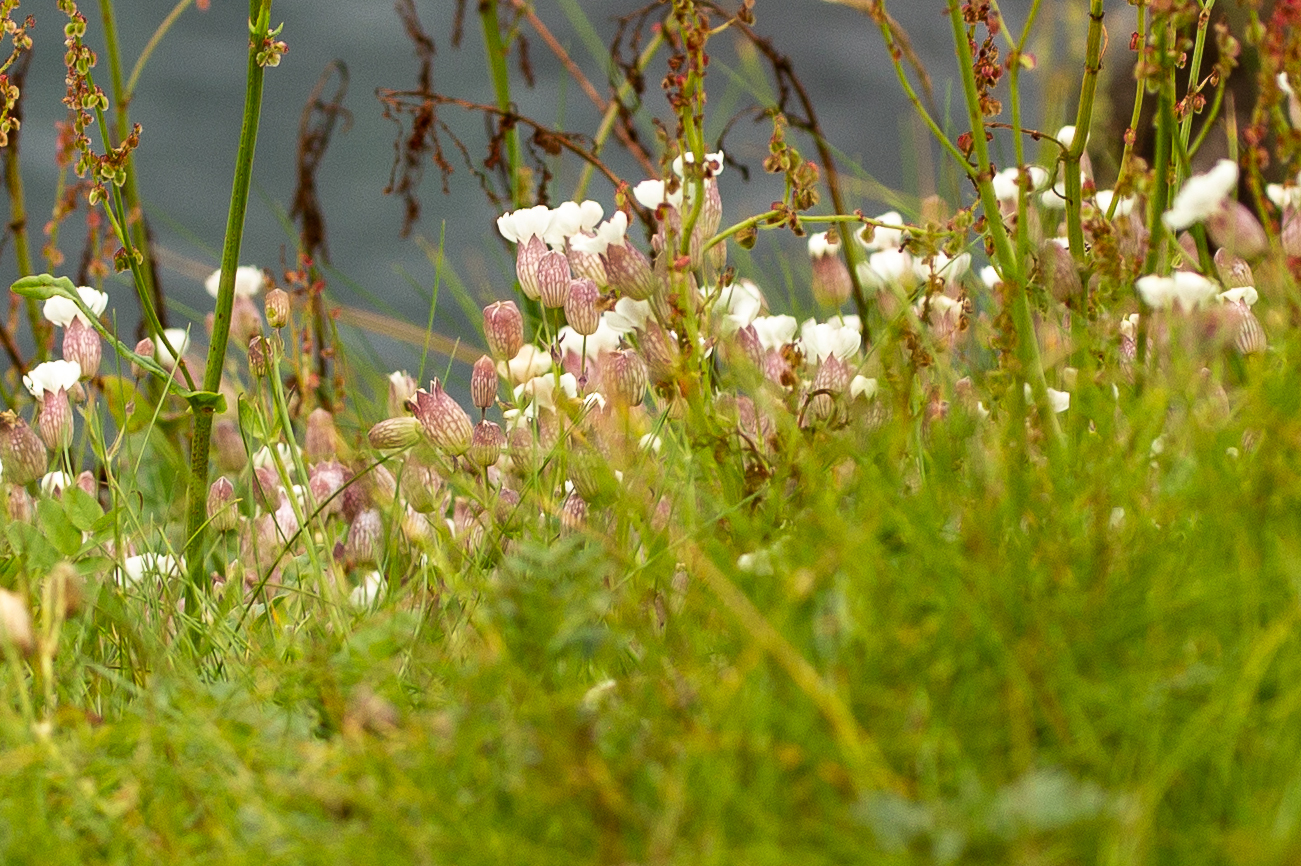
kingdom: Plantae
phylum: Tracheophyta
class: Magnoliopsida
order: Caryophyllales
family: Caryophyllaceae
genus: Silene
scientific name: Silene uniflora
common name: Sea campion
